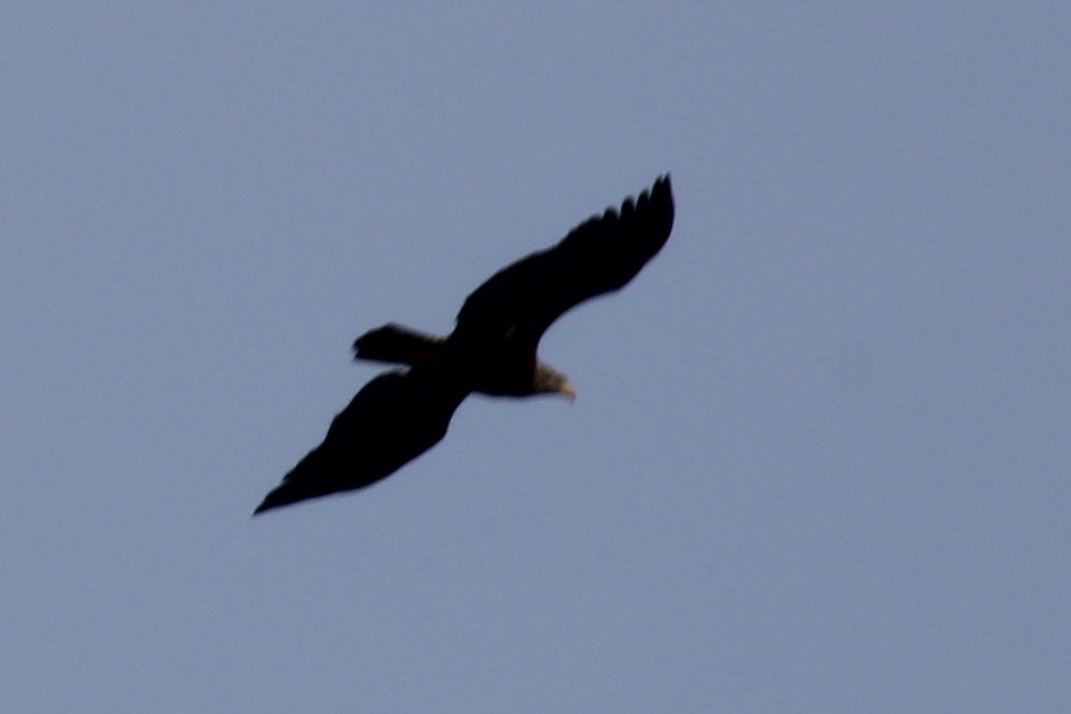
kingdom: Animalia
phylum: Chordata
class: Aves
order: Accipitriformes
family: Accipitridae
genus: Haliaeetus
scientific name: Haliaeetus leucocephalus
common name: Bald eagle
